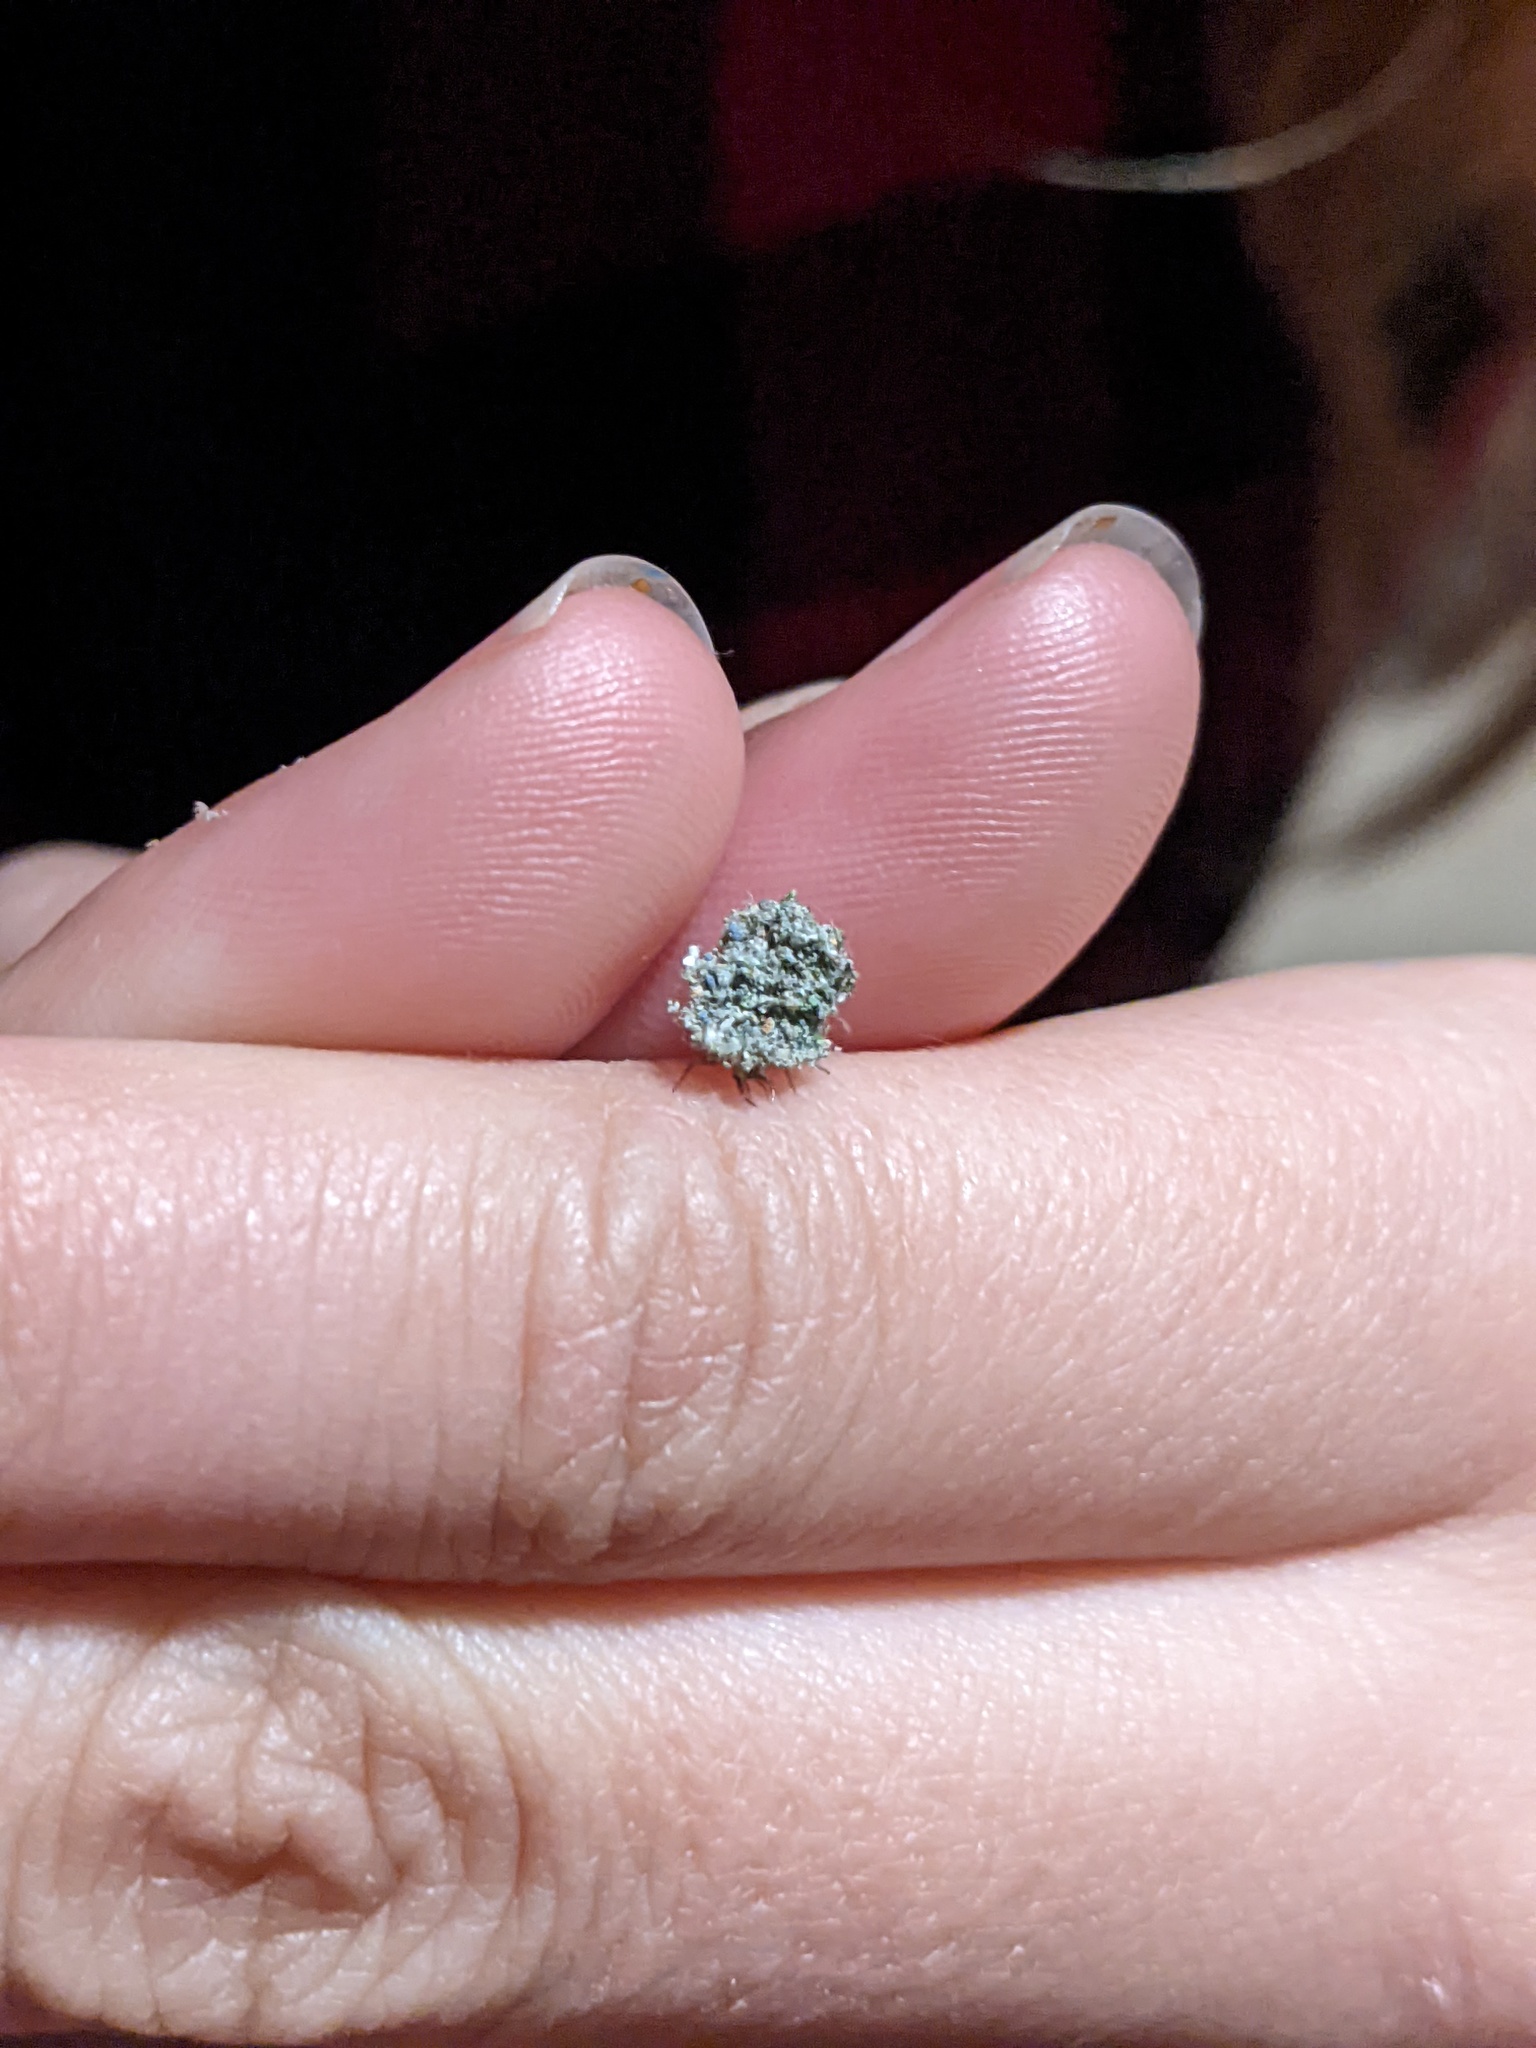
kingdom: Animalia
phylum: Arthropoda
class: Insecta
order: Neuroptera
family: Chrysopidae
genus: Leucochrysa
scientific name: Leucochrysa pavida
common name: Lichen-carrying green lacewing
